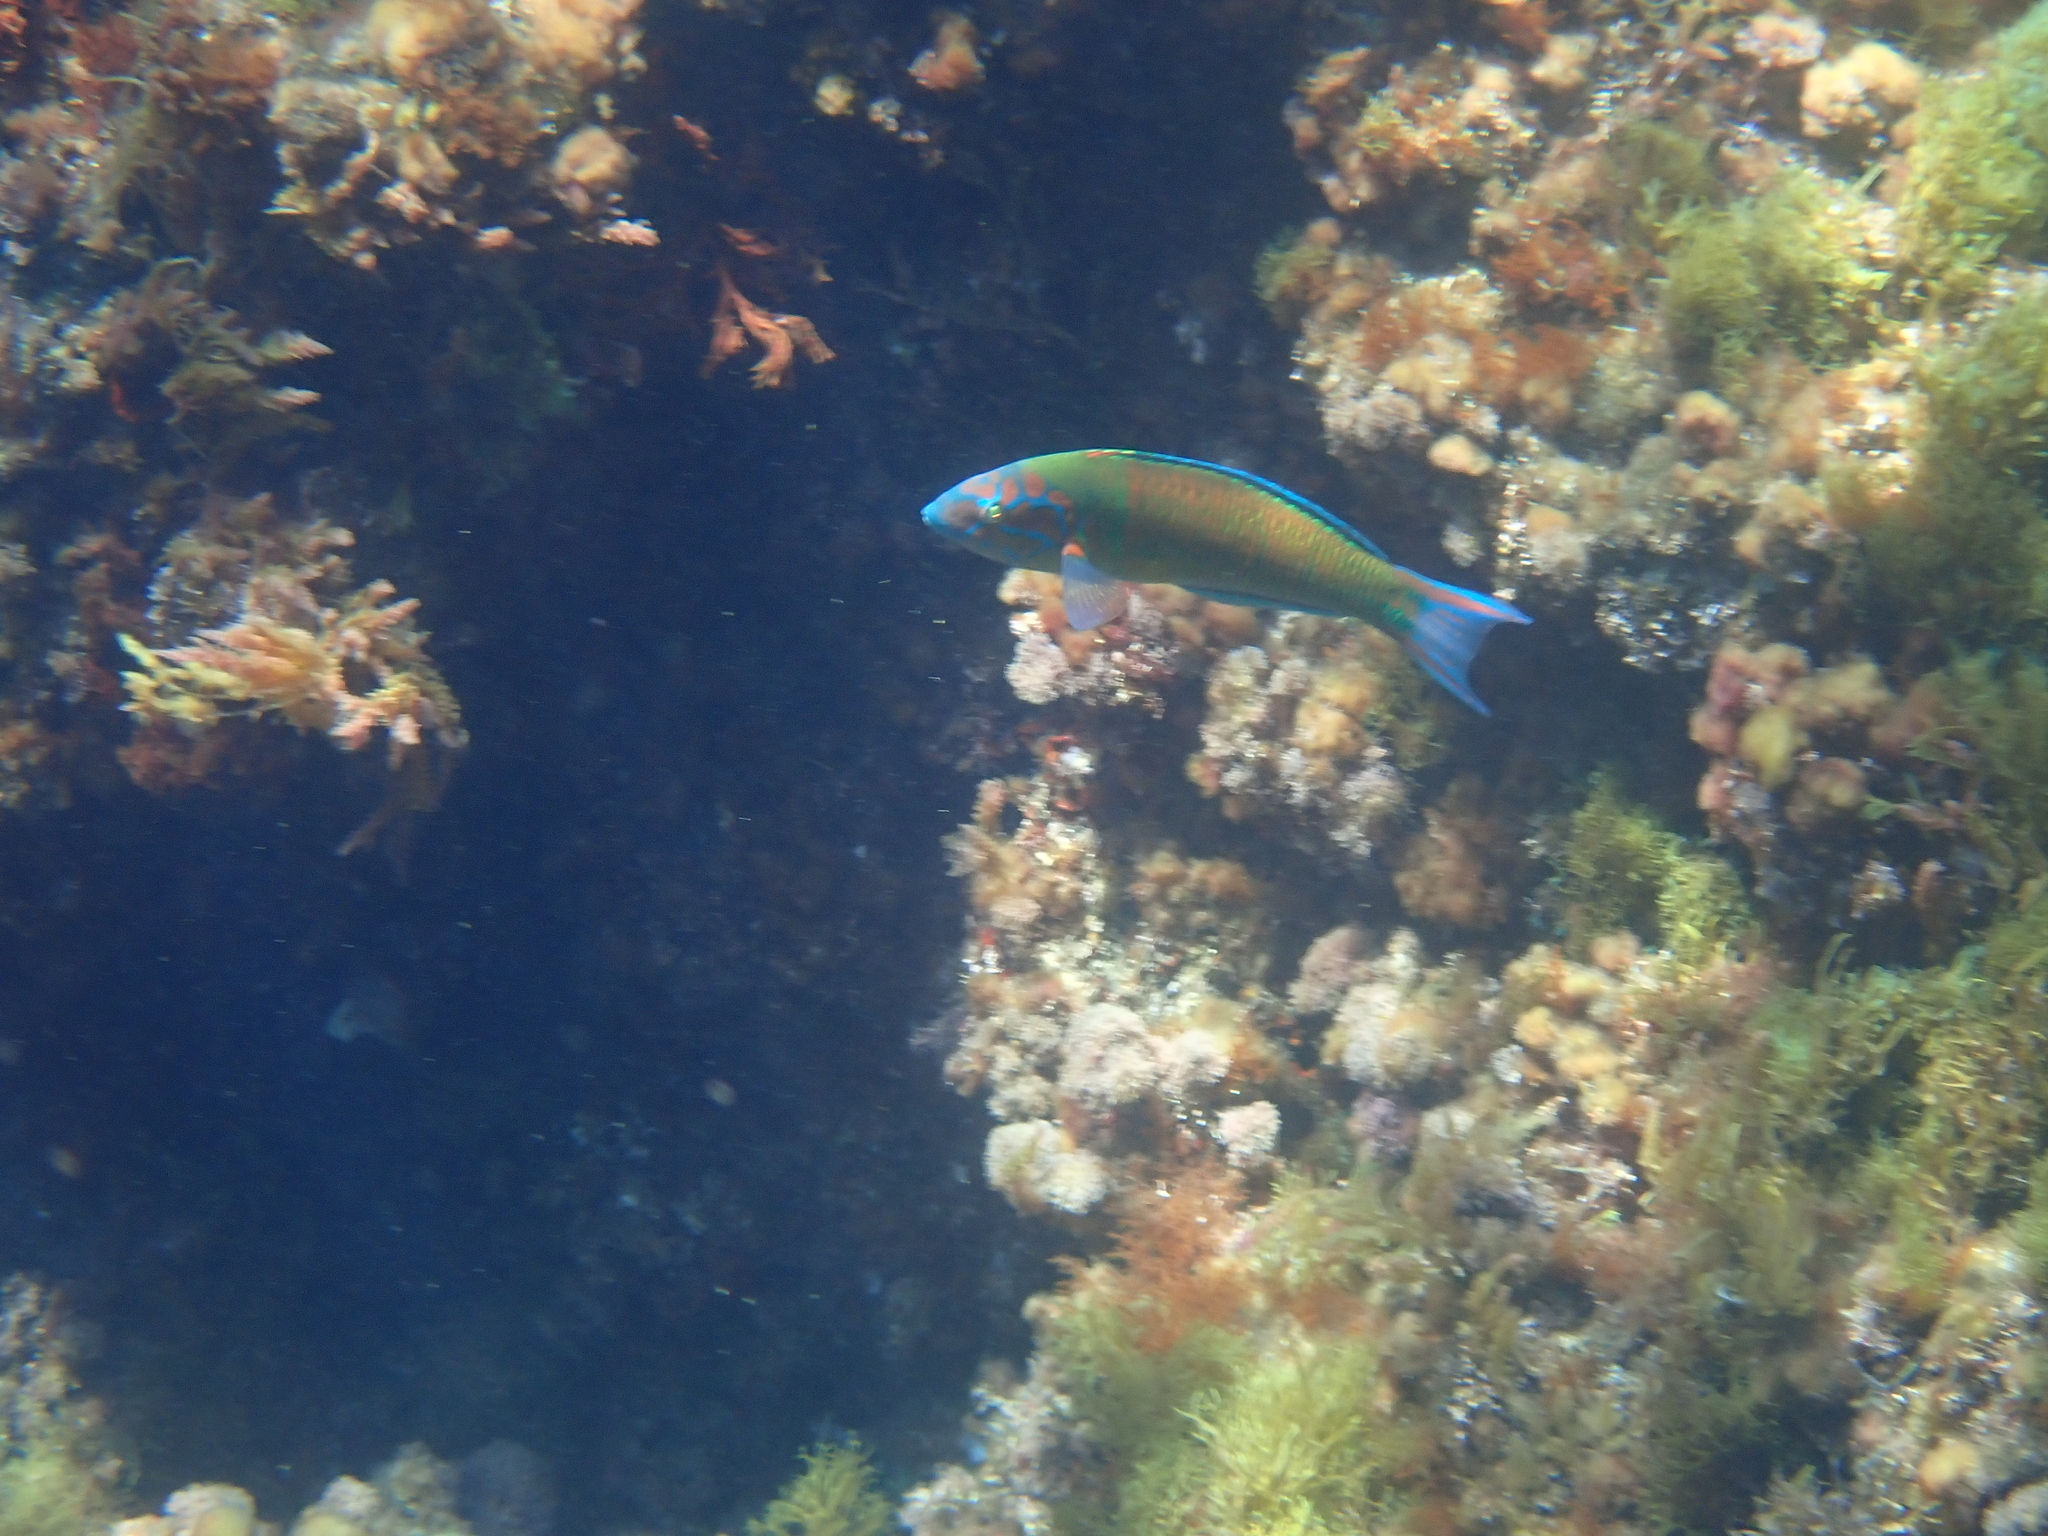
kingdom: Animalia
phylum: Chordata
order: Perciformes
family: Labridae
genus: Thalassoma
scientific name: Thalassoma pavo
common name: Ornate wrasse
